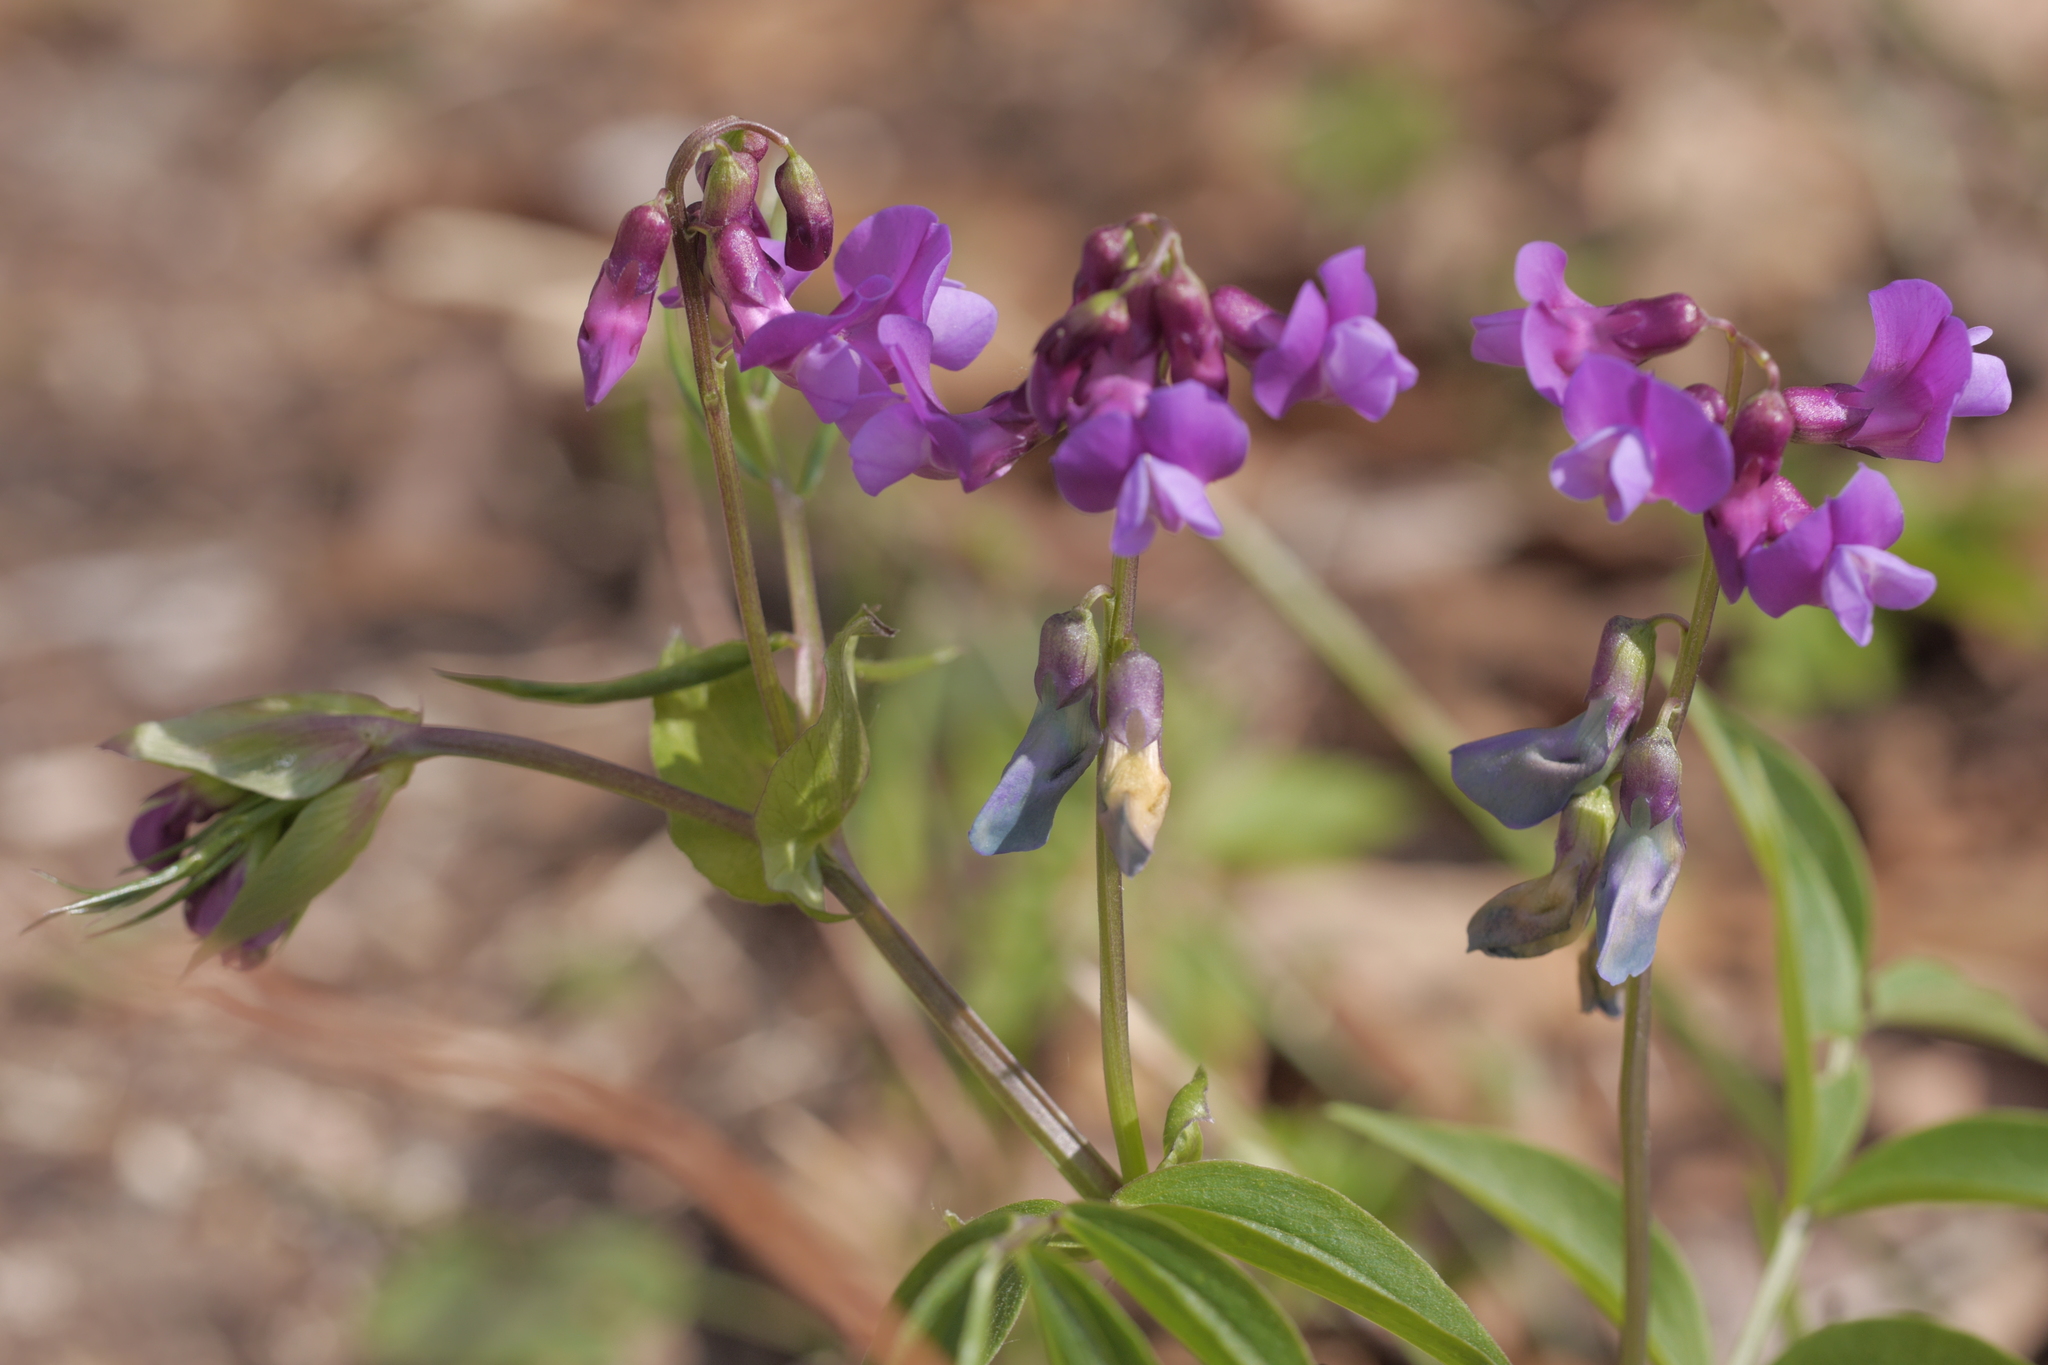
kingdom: Plantae
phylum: Tracheophyta
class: Magnoliopsida
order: Fabales
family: Fabaceae
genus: Lathyrus
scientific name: Lathyrus vernus
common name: Spring pea
